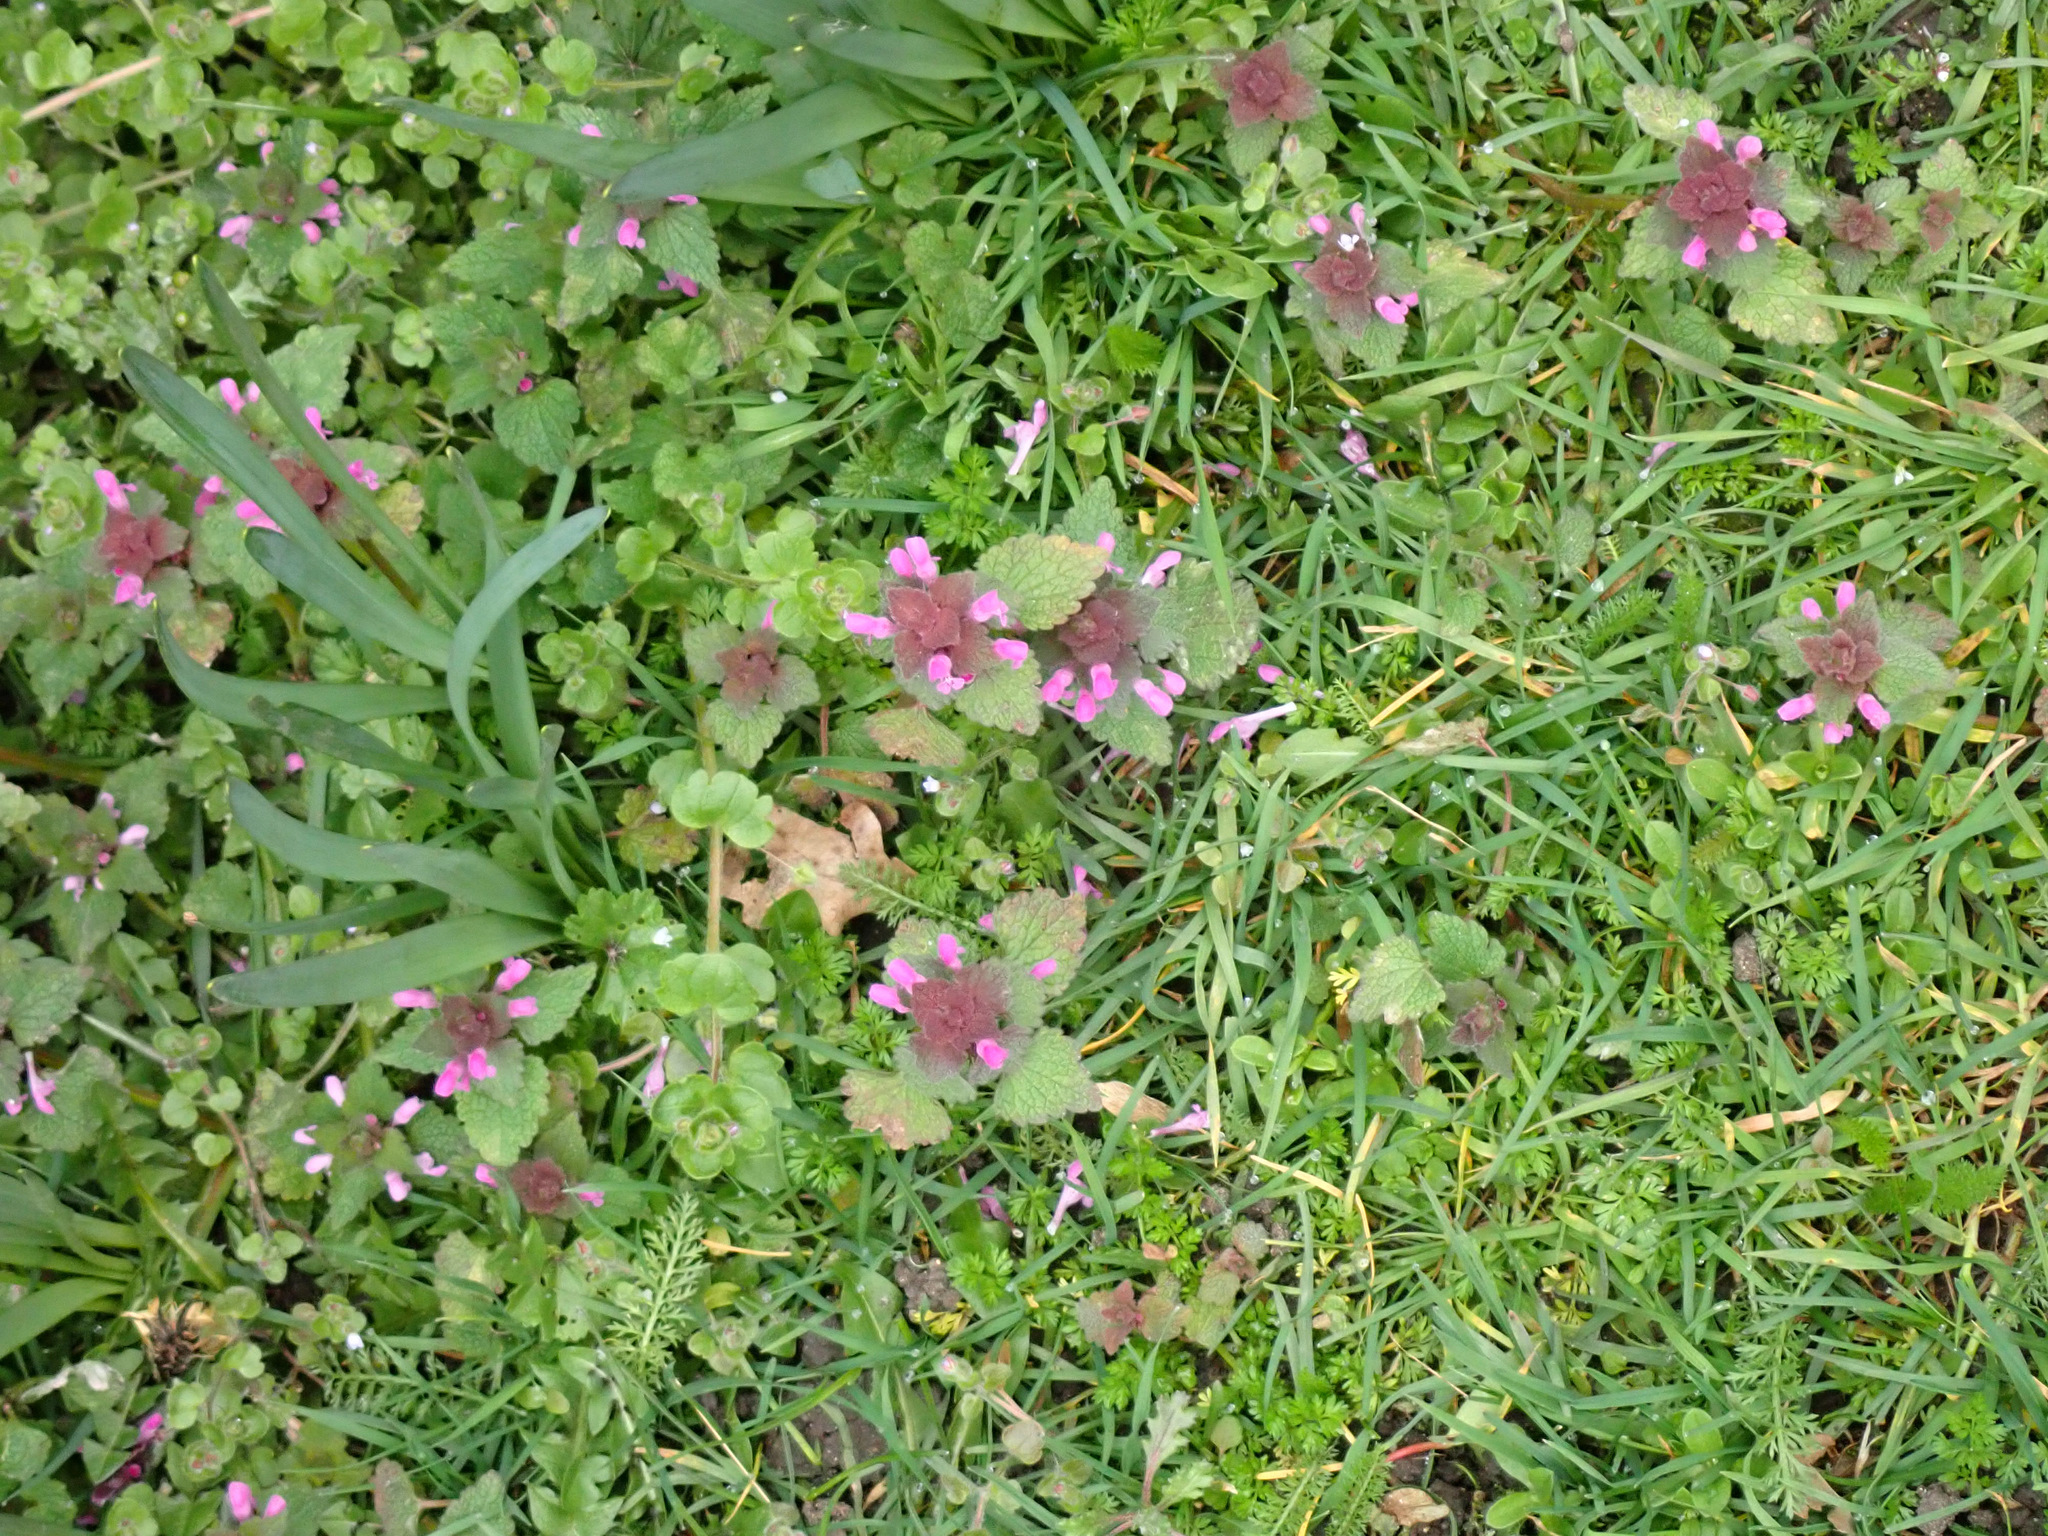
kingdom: Plantae
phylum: Tracheophyta
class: Magnoliopsida
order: Lamiales
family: Lamiaceae
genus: Lamium
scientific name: Lamium purpureum
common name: Red dead-nettle
